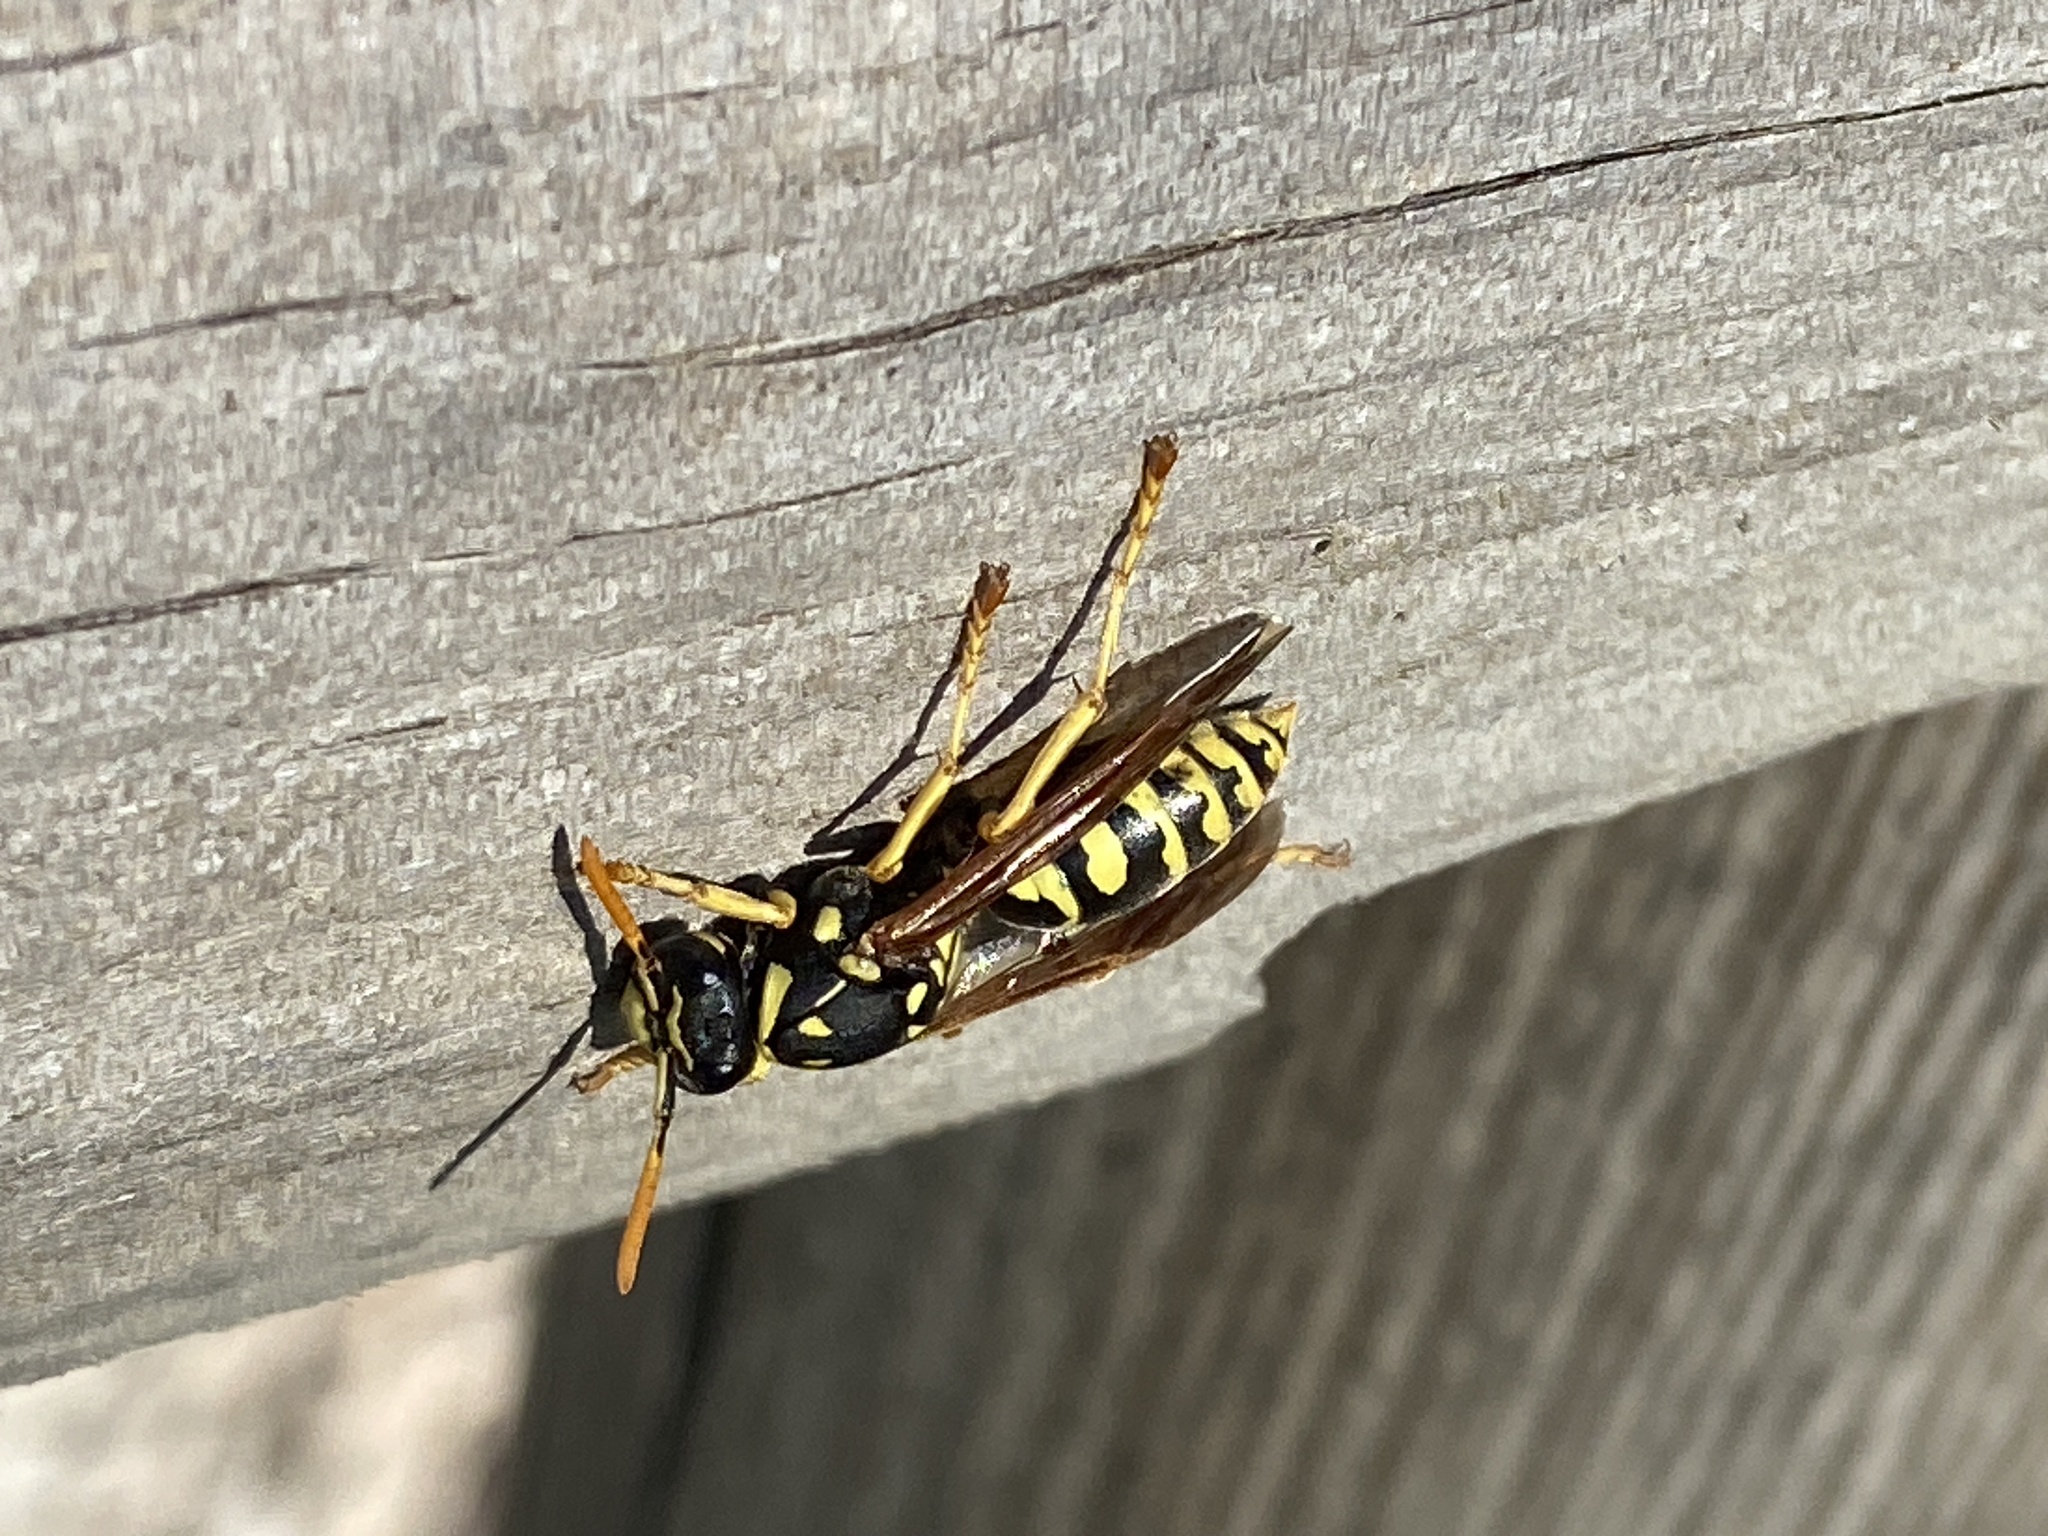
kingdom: Animalia
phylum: Arthropoda
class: Insecta
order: Hymenoptera
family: Eumenidae
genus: Polistes
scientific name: Polistes dominula
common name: Paper wasp
